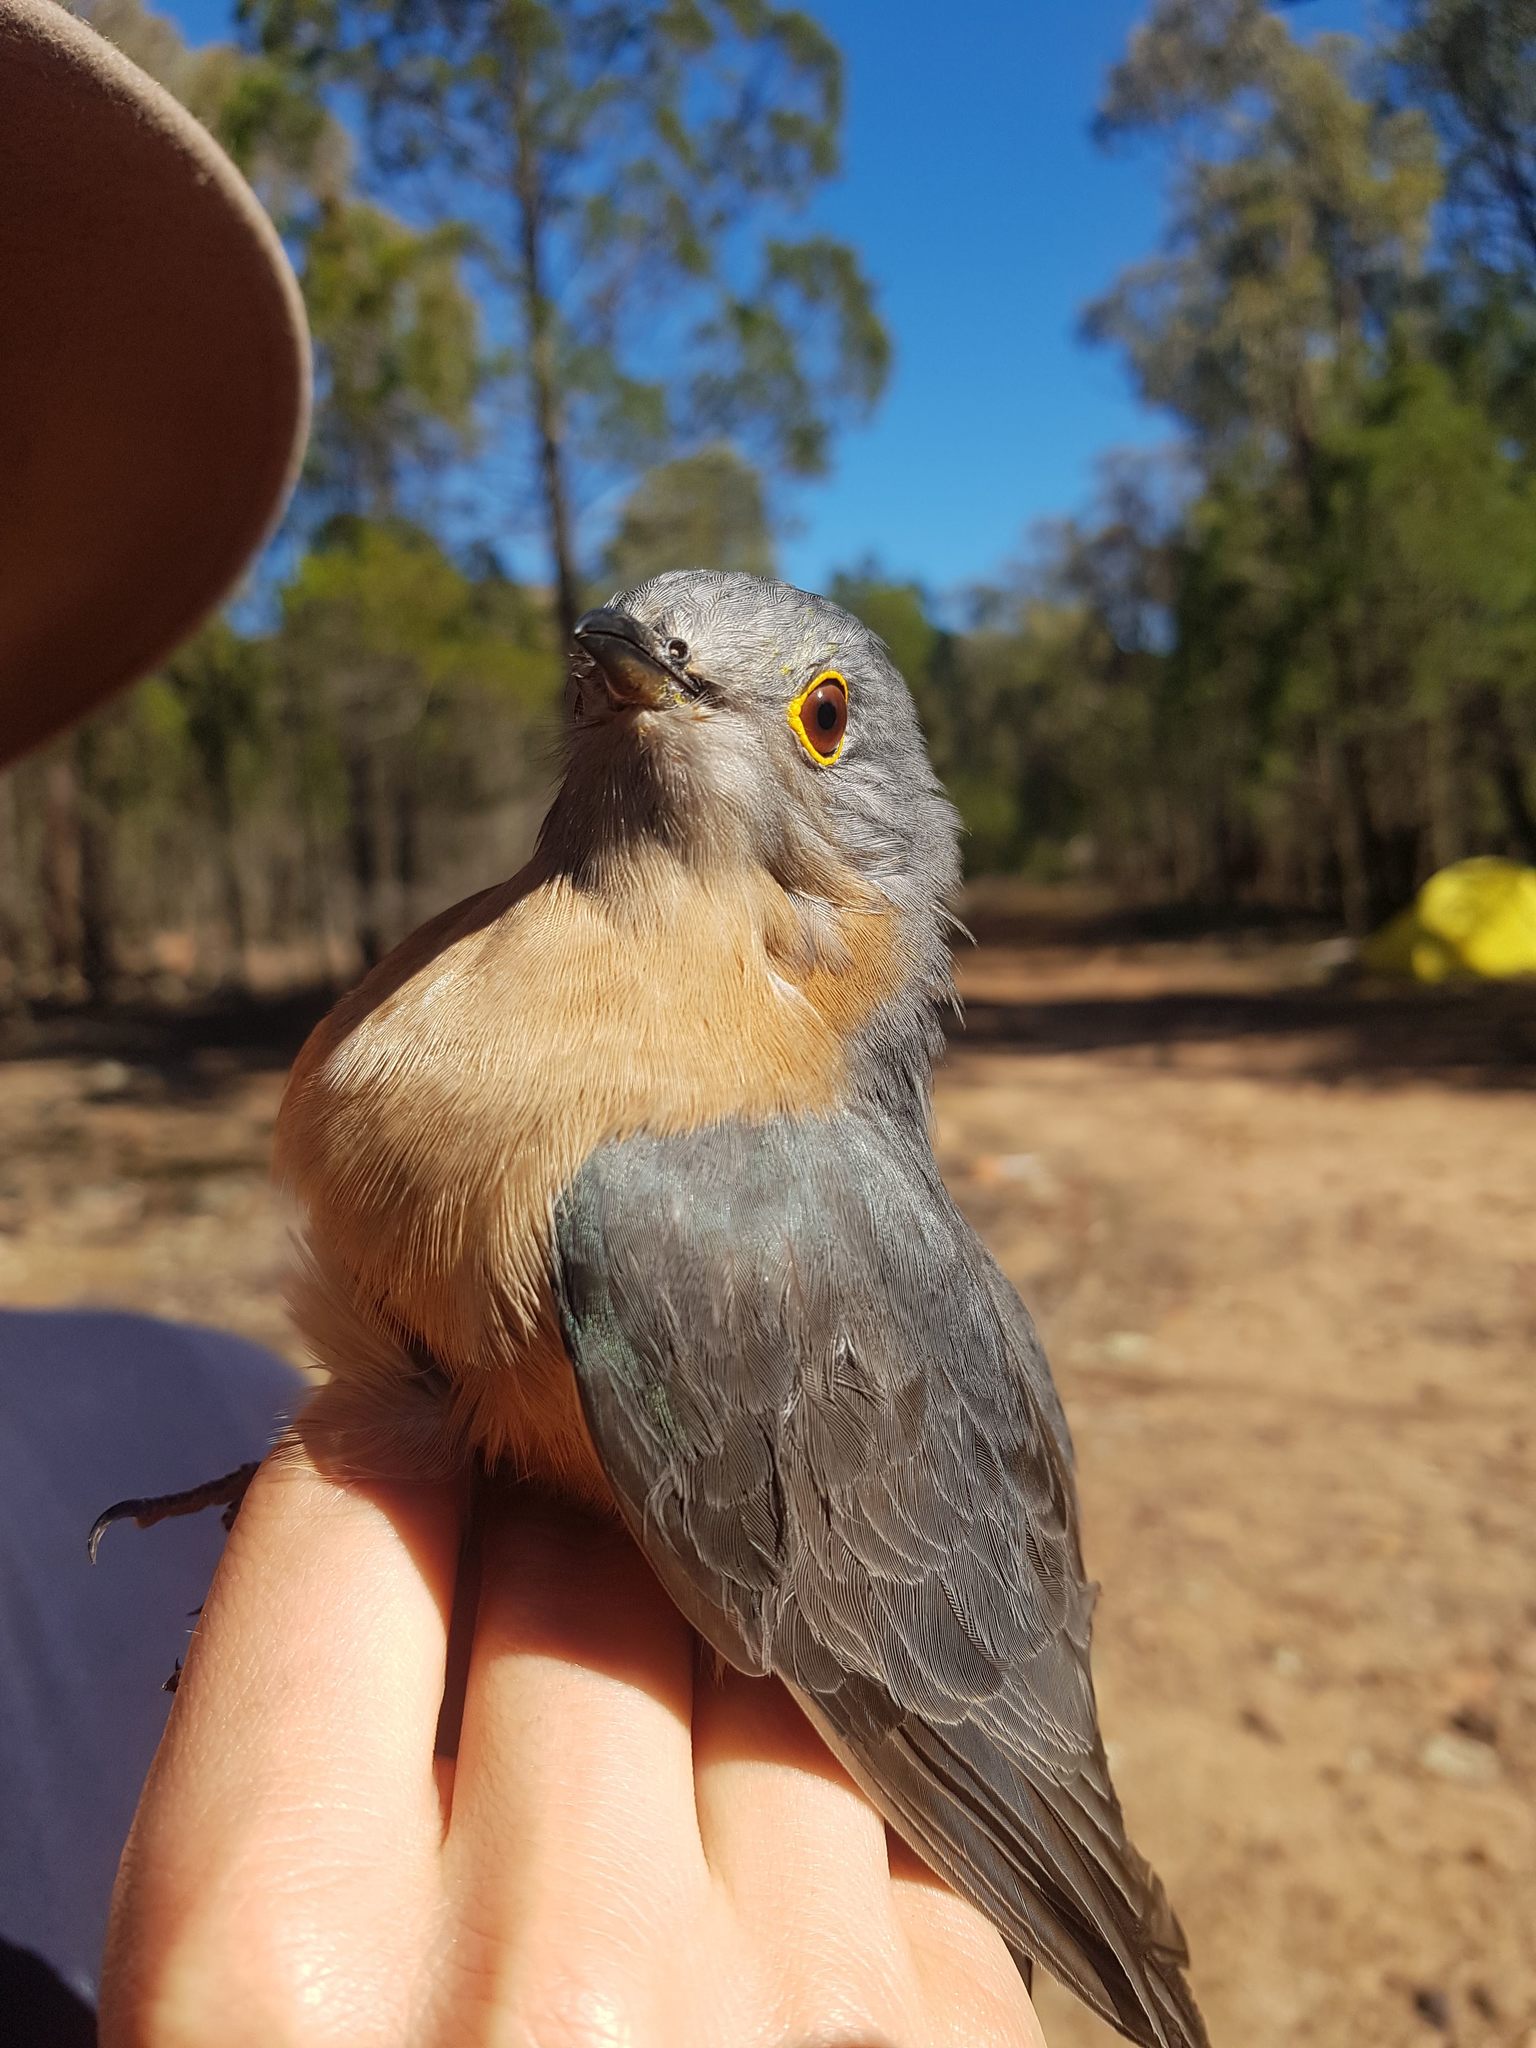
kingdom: Animalia
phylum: Chordata
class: Aves
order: Cuculiformes
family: Cuculidae
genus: Cacomantis
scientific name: Cacomantis flabelliformis
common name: Fan-tailed cuckoo
